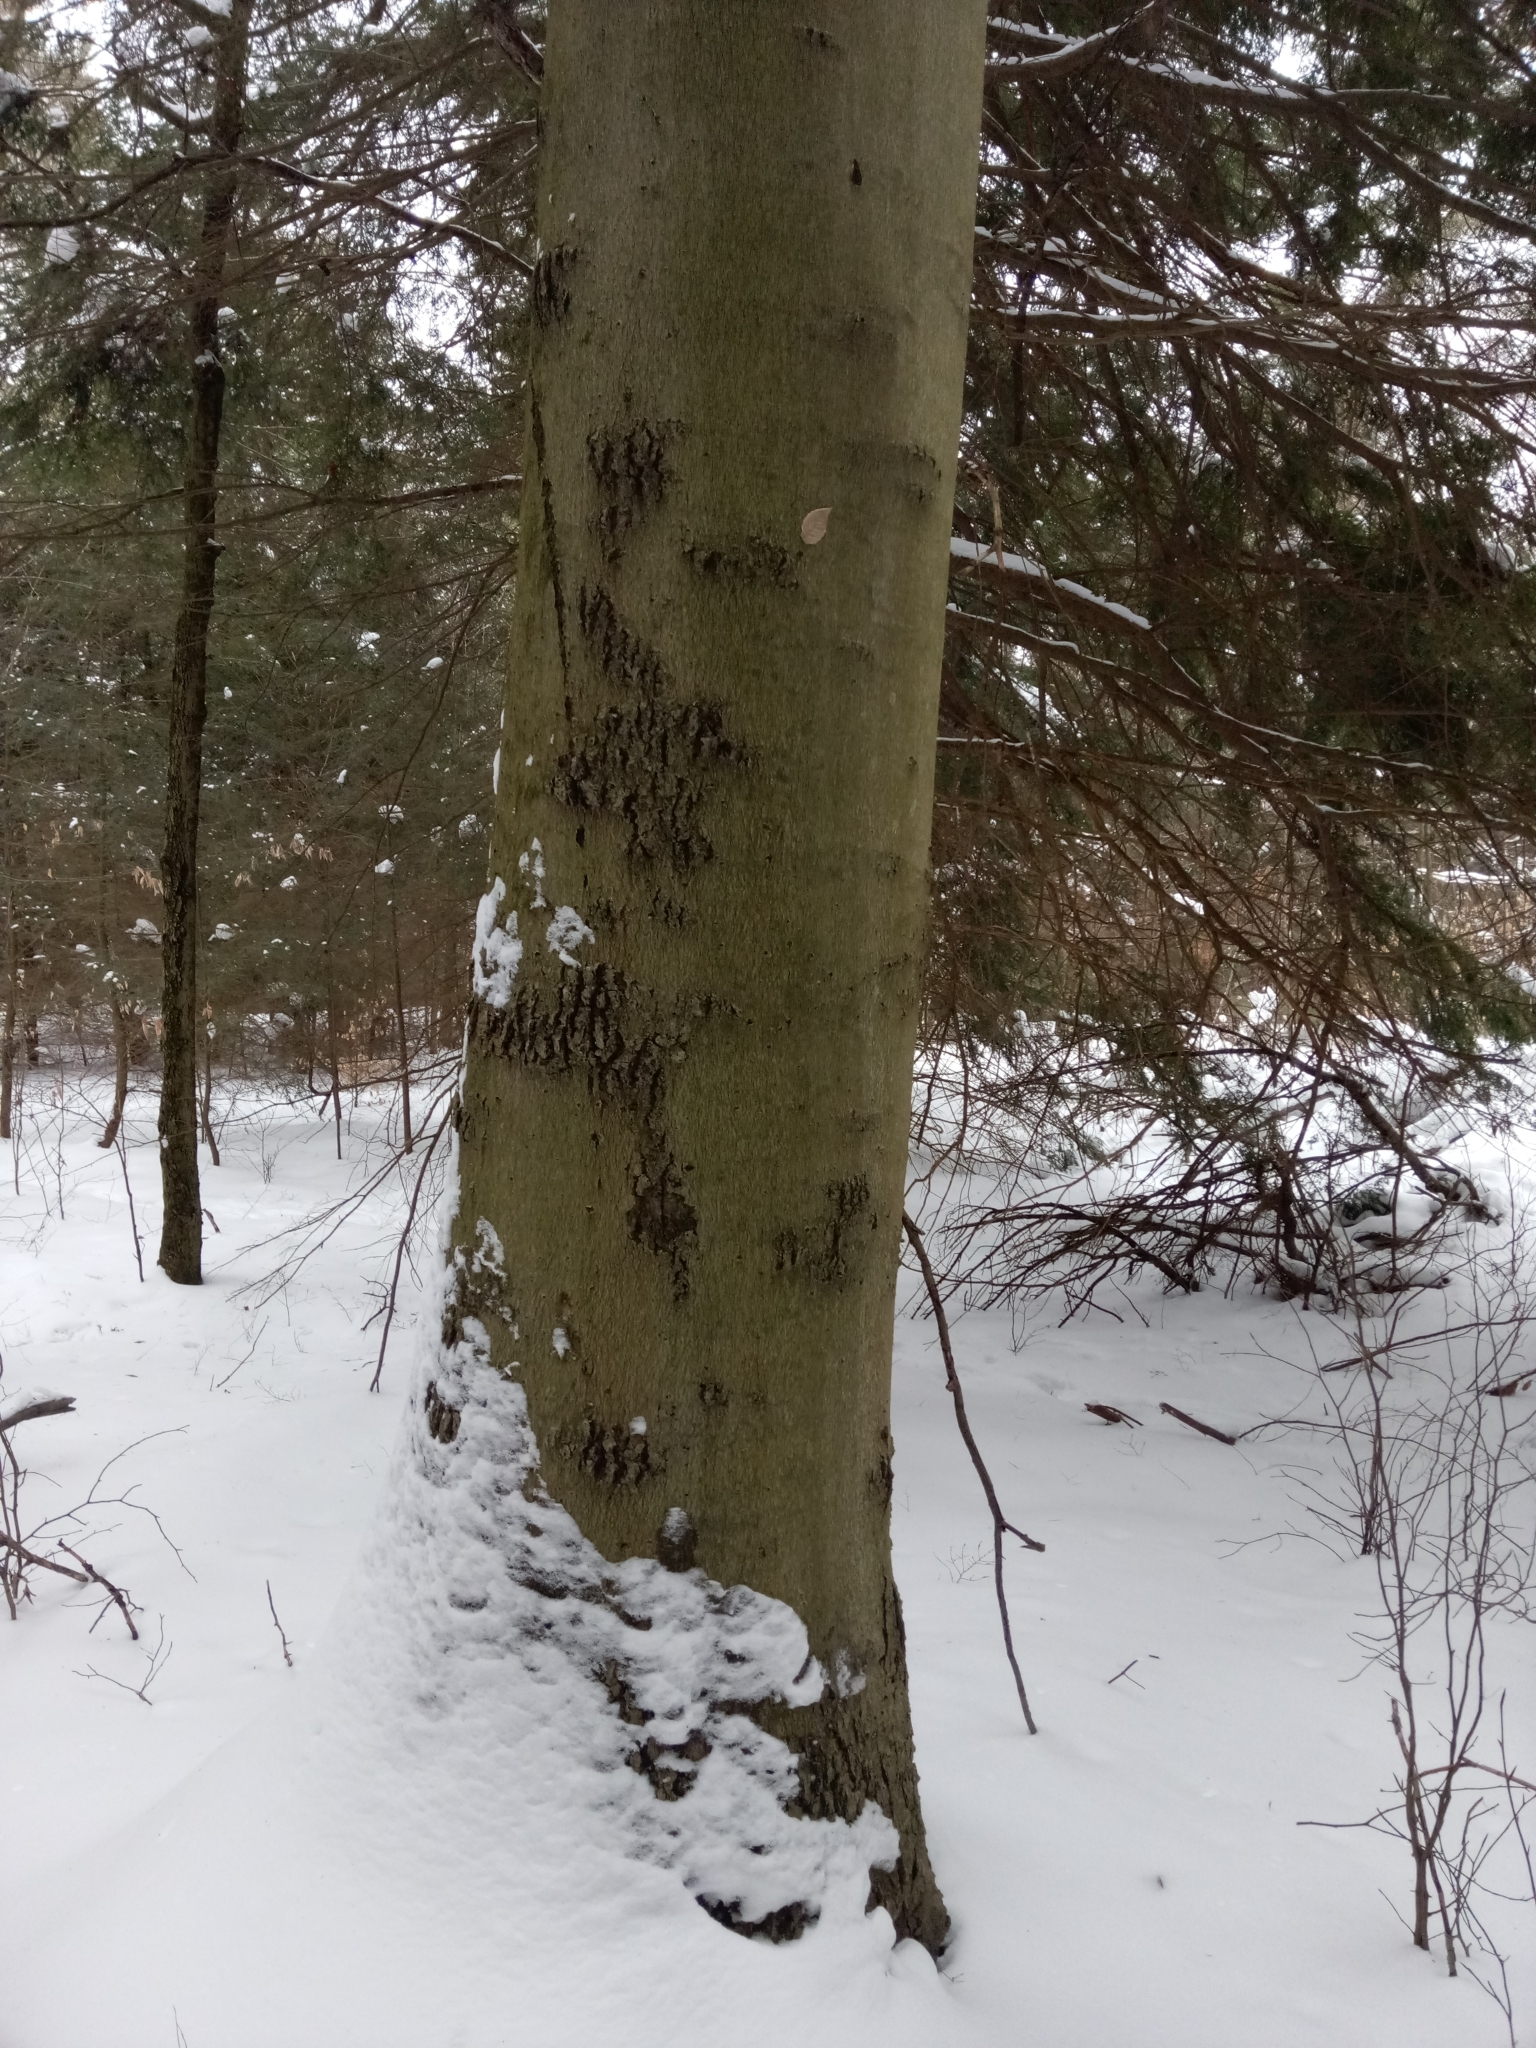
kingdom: Plantae
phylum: Tracheophyta
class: Magnoliopsida
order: Fagales
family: Fagaceae
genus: Fagus
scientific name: Fagus grandifolia
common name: American beech
